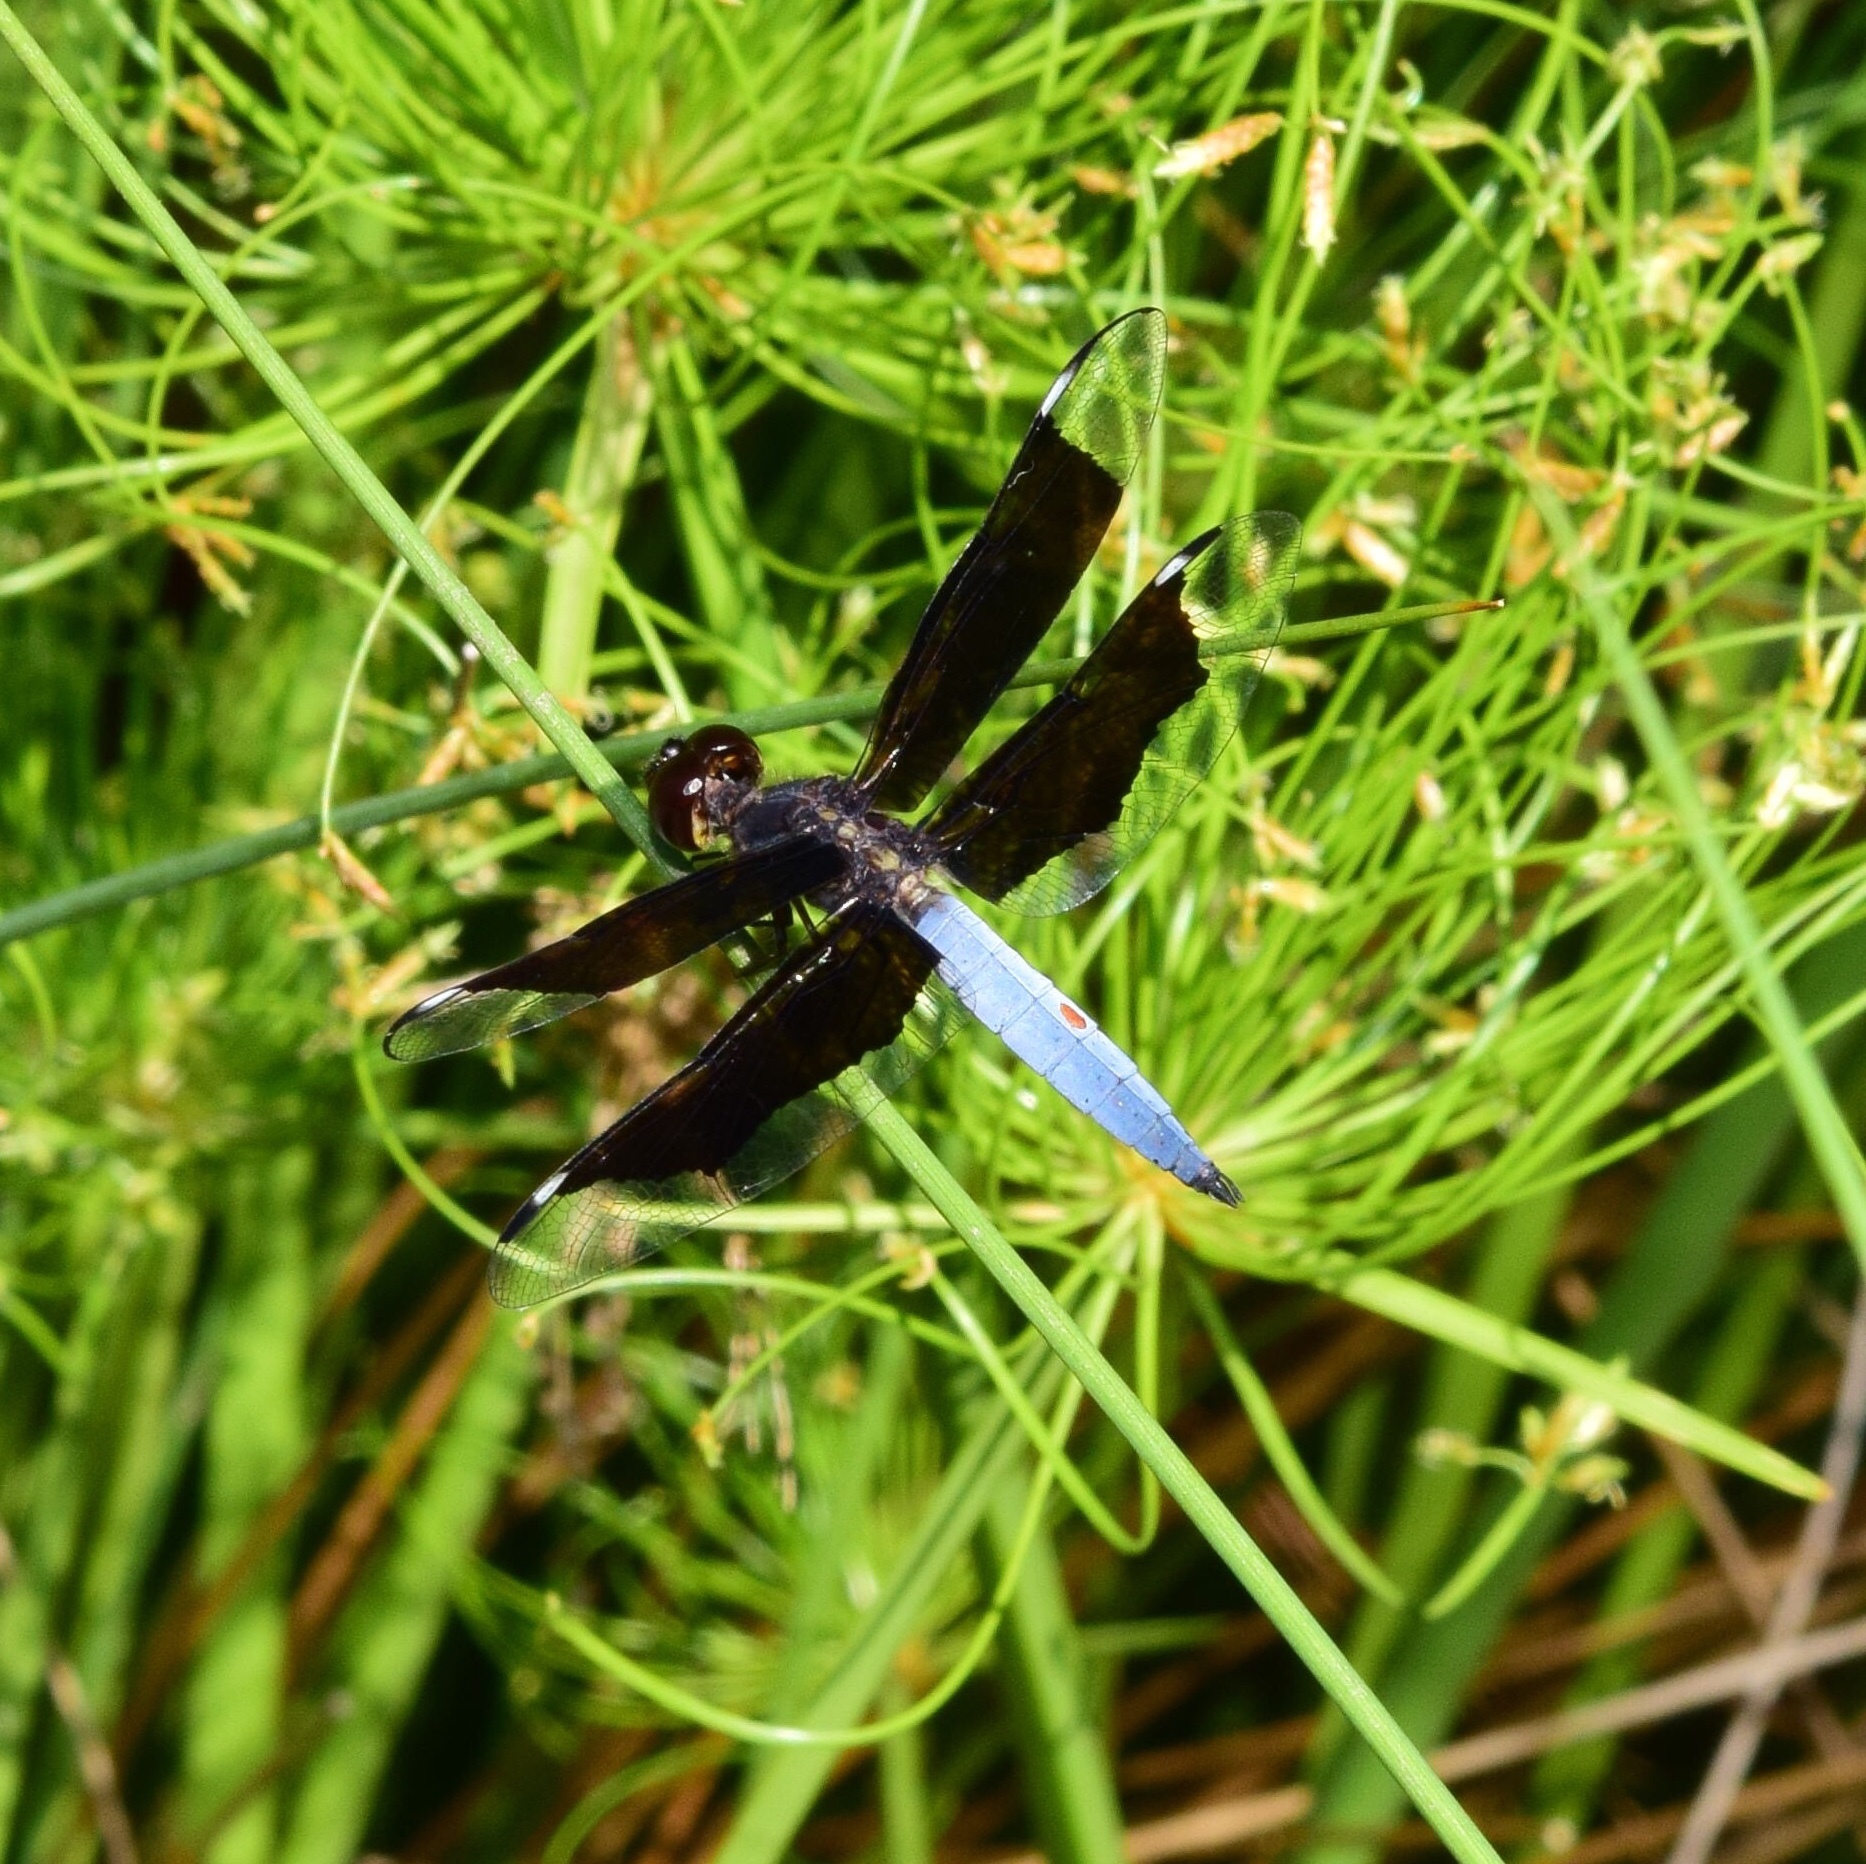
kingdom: Animalia
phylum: Arthropoda
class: Insecta
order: Odonata
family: Libellulidae
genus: Palpopleura
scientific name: Palpopleura lucia
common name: Lucia widow
